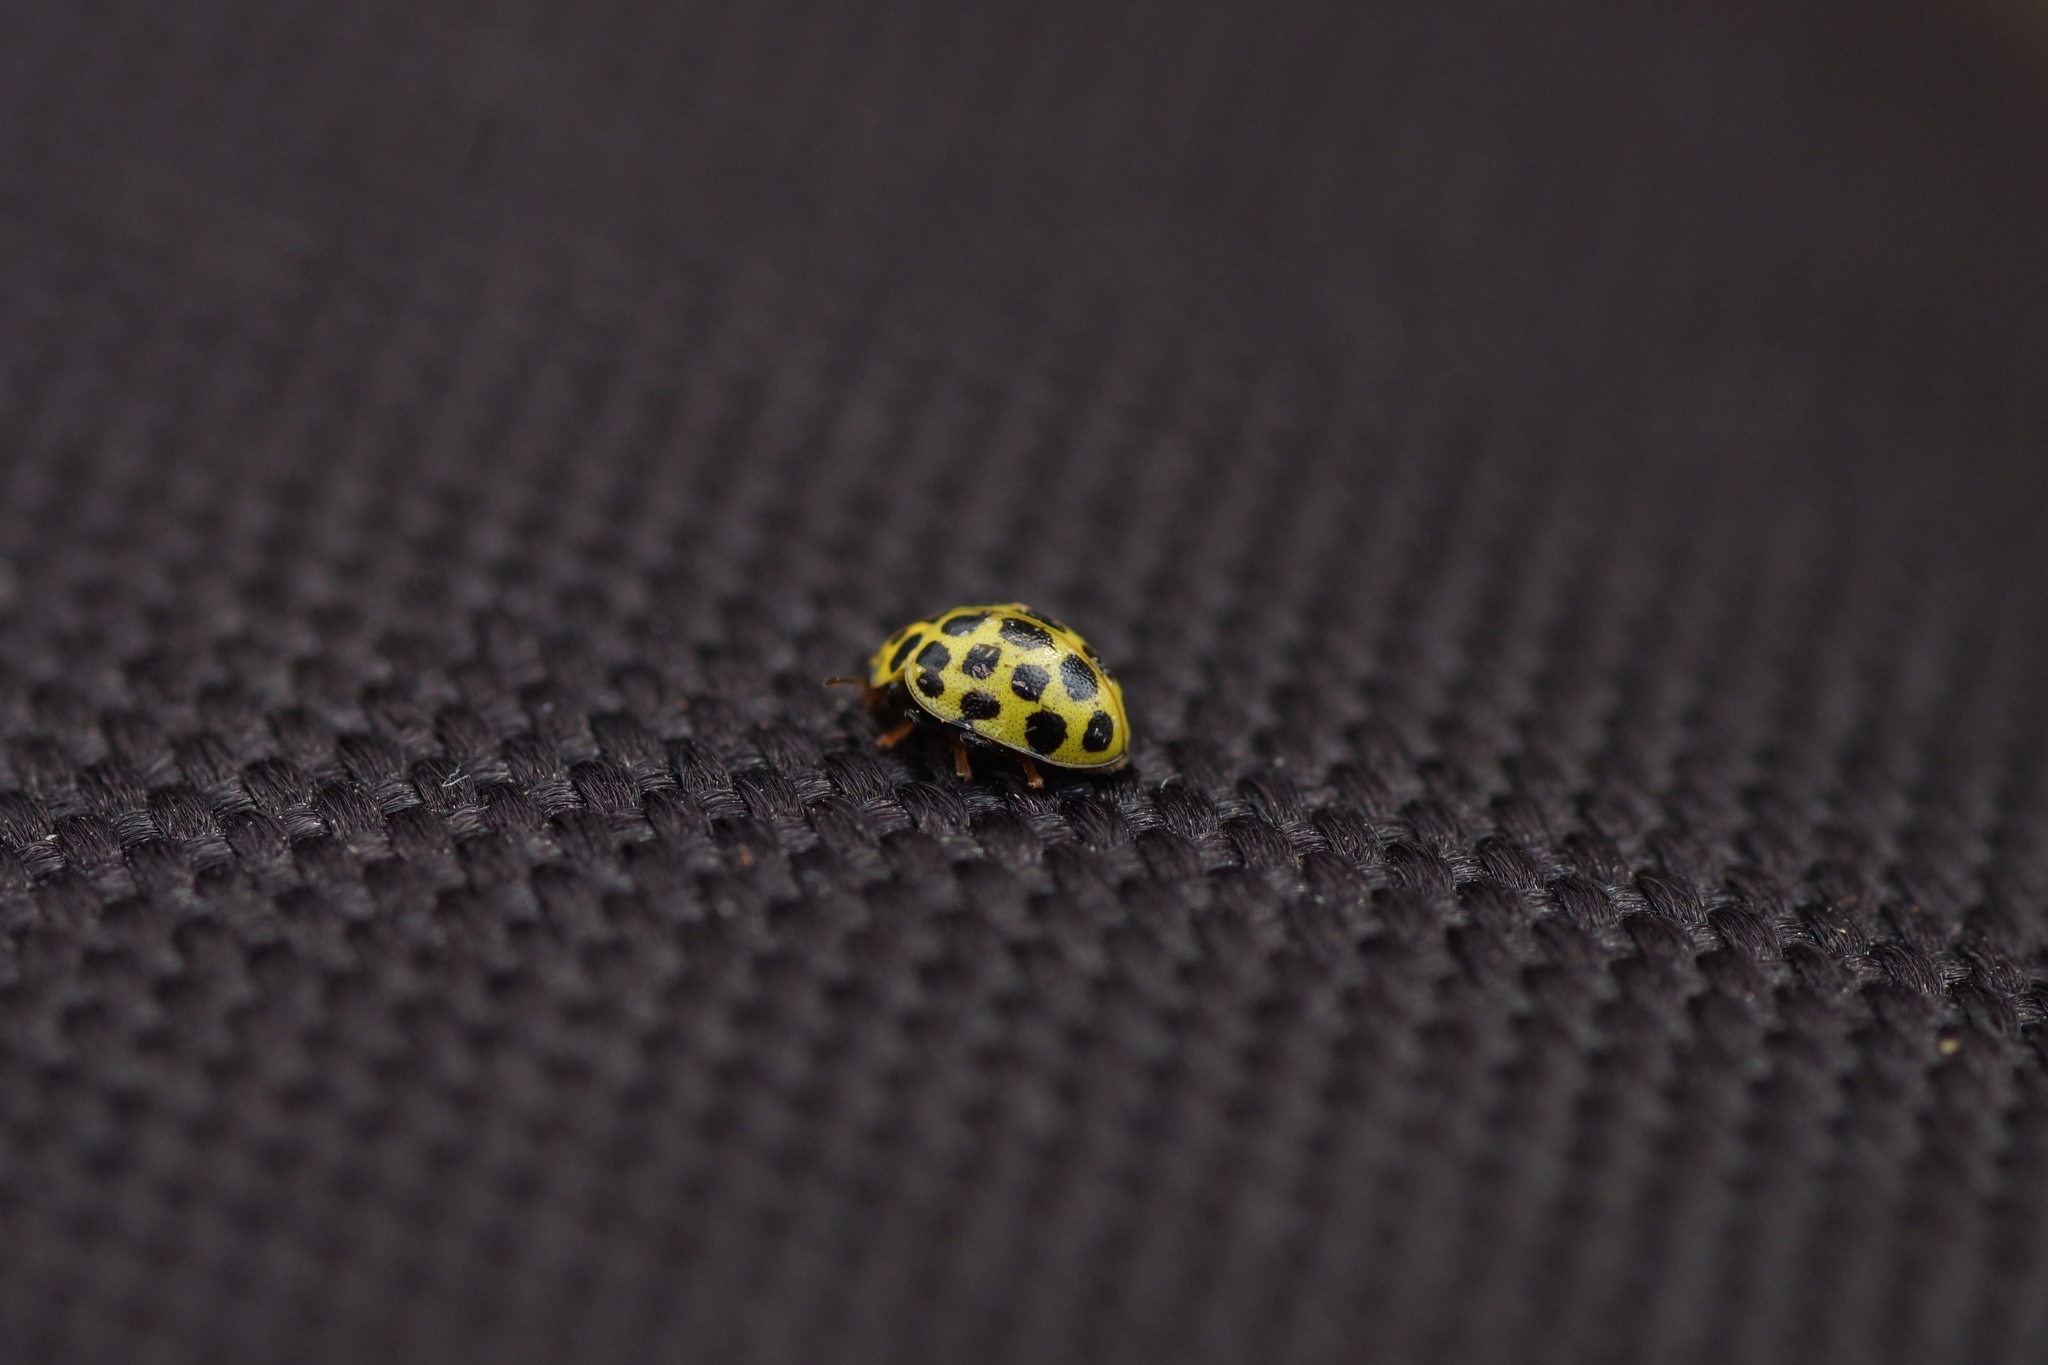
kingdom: Animalia
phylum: Arthropoda
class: Insecta
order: Coleoptera
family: Coccinellidae
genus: Psyllobora
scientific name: Psyllobora vigintiduopunctata
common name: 22-spot ladybird
